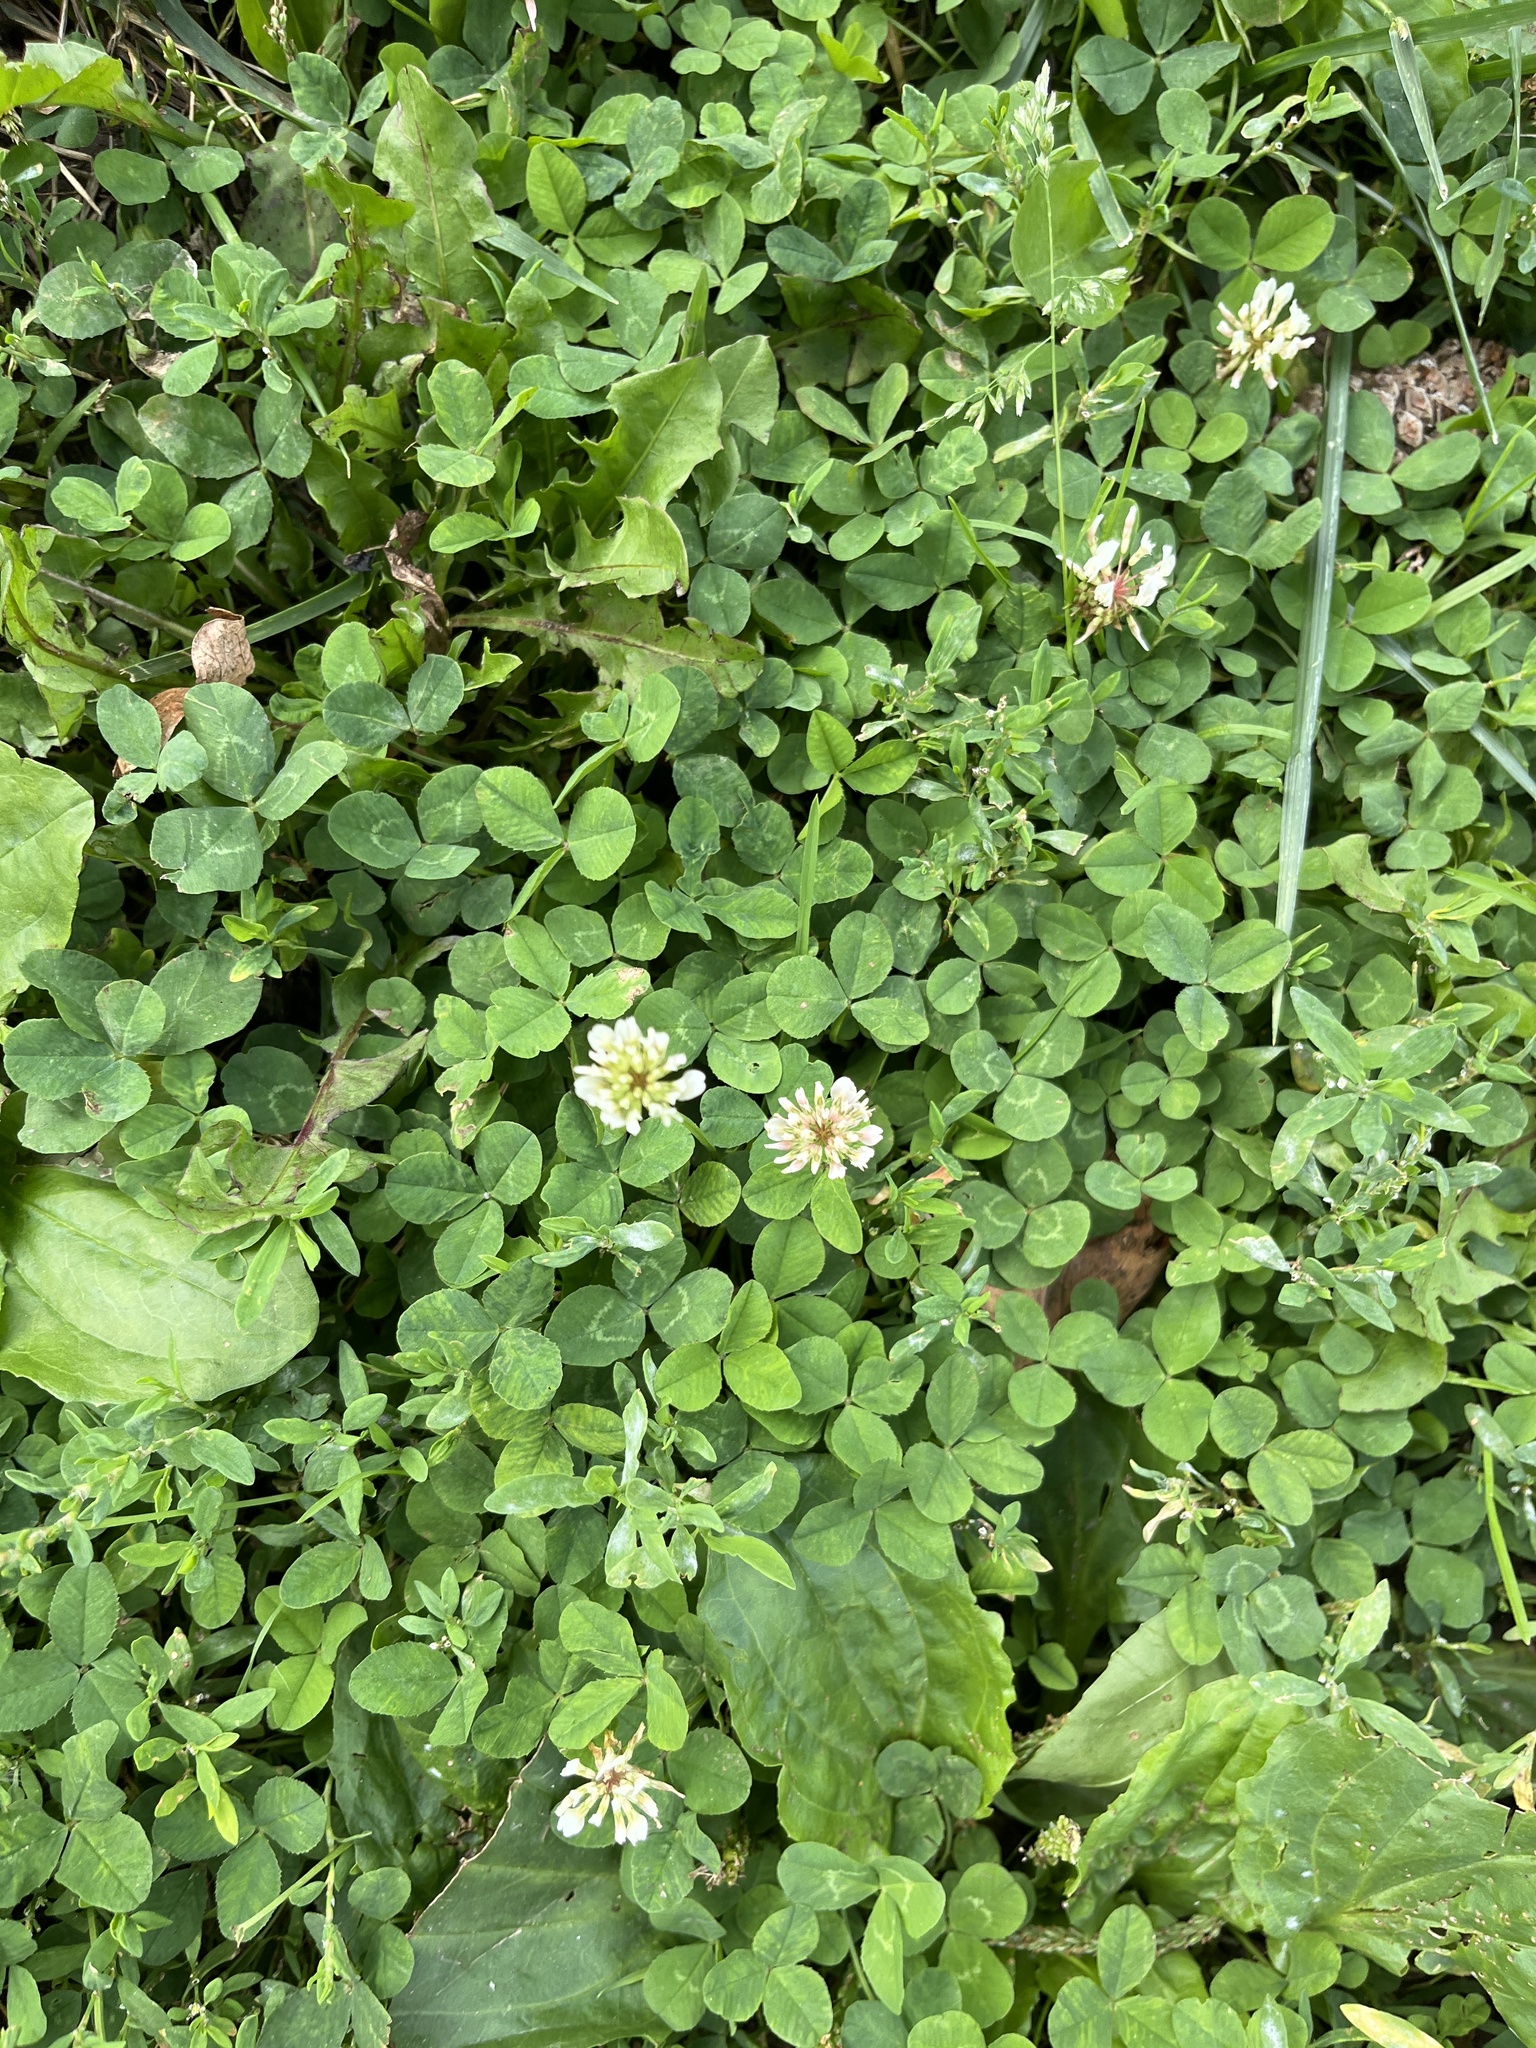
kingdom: Plantae
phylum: Tracheophyta
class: Magnoliopsida
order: Fabales
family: Fabaceae
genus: Trifolium
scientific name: Trifolium repens
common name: White clover
